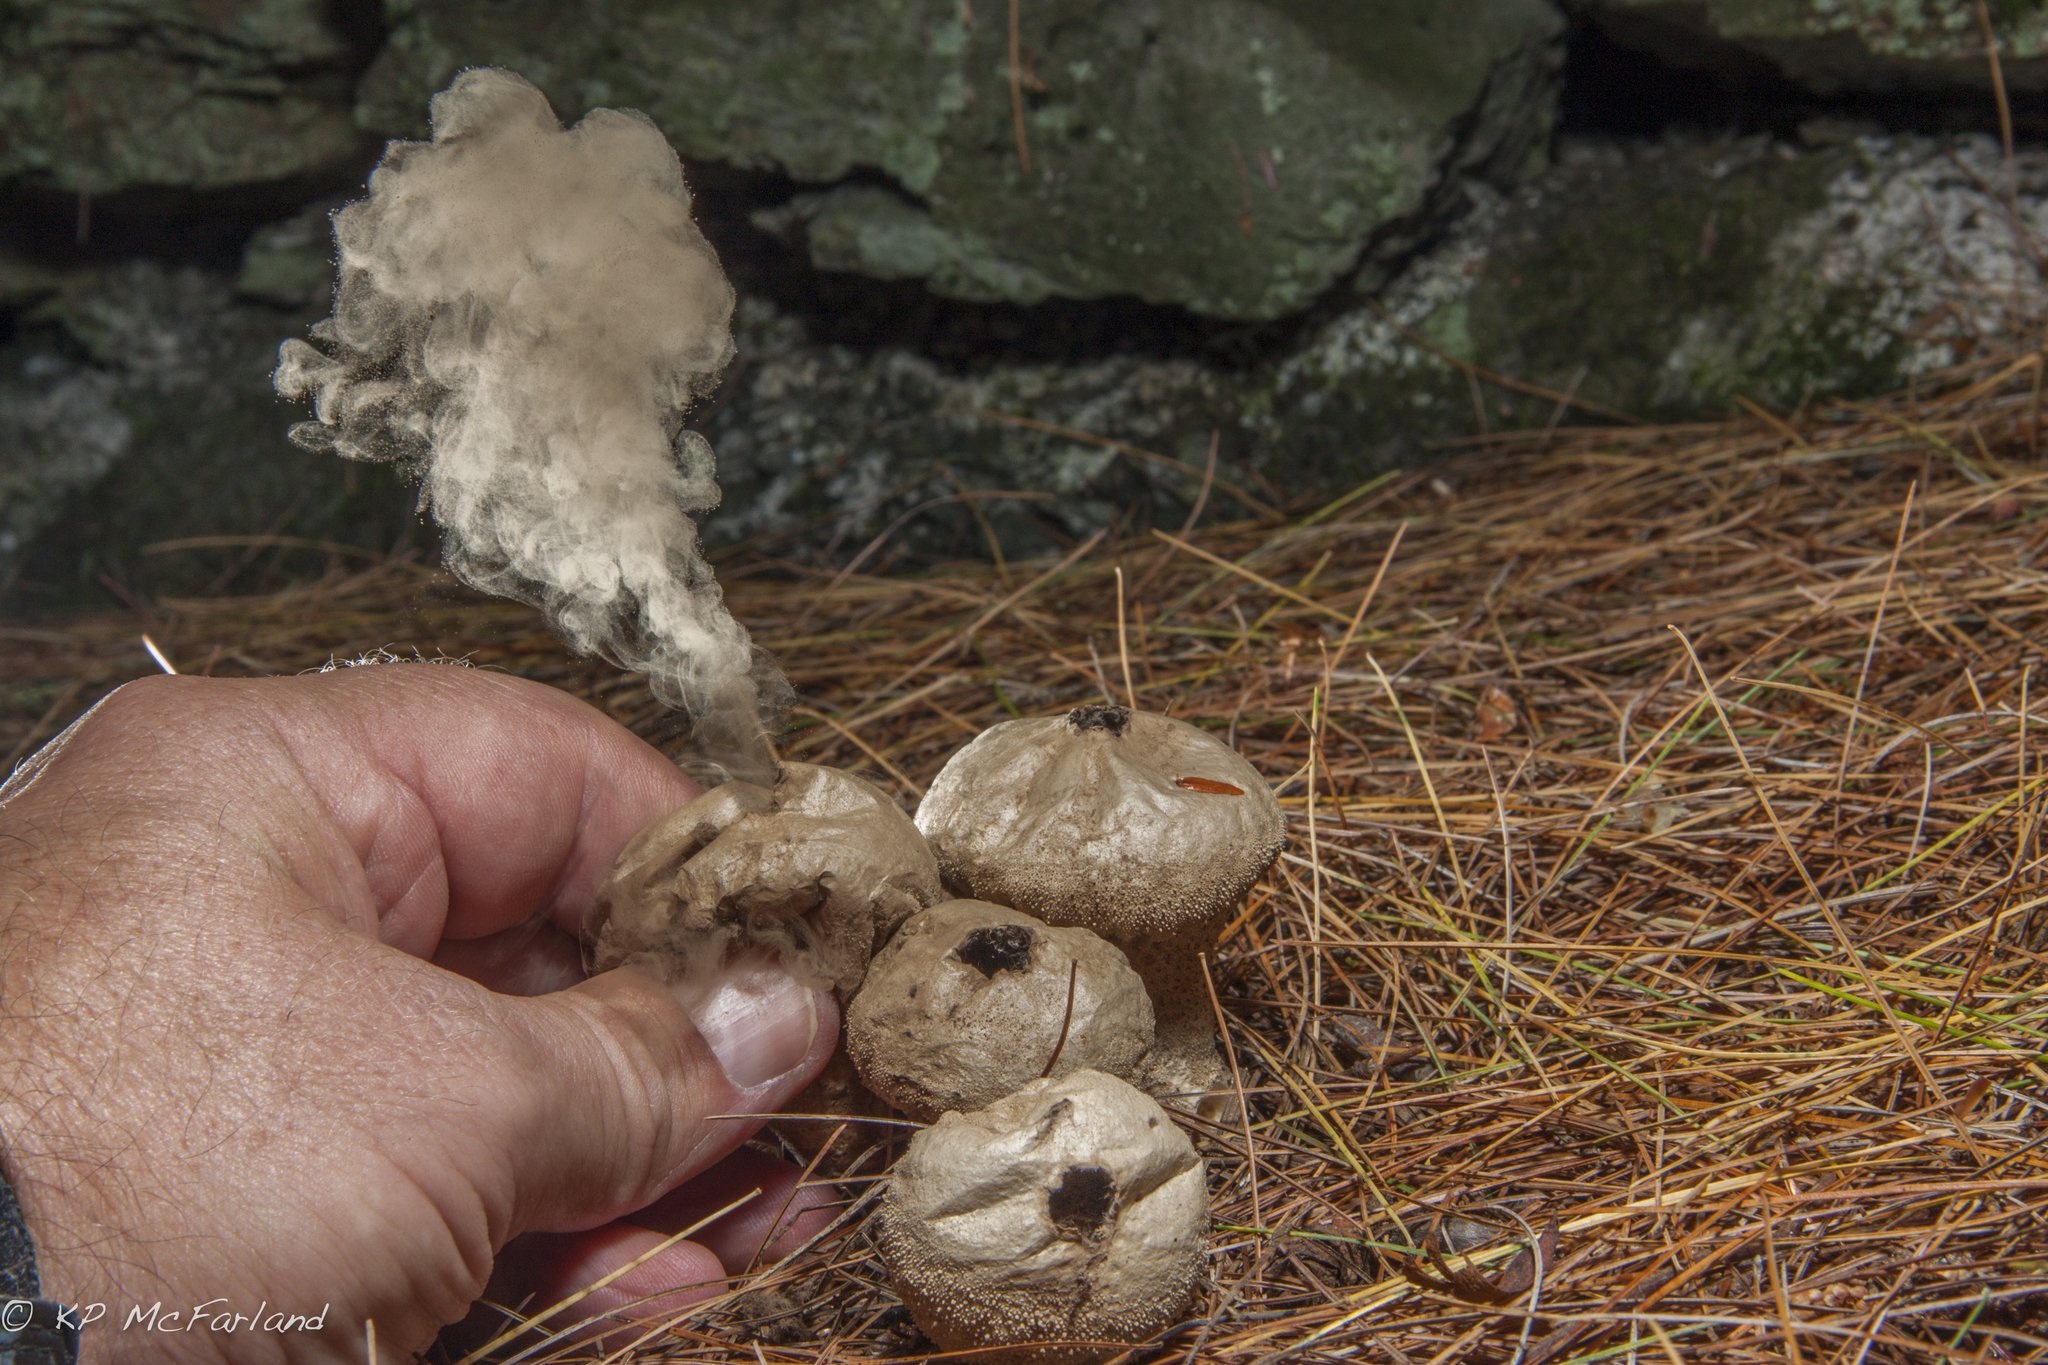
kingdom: Fungi
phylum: Basidiomycota
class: Agaricomycetes
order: Agaricales
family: Lycoperdaceae
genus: Lycoperdon
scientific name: Lycoperdon perlatum
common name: Common puffball
